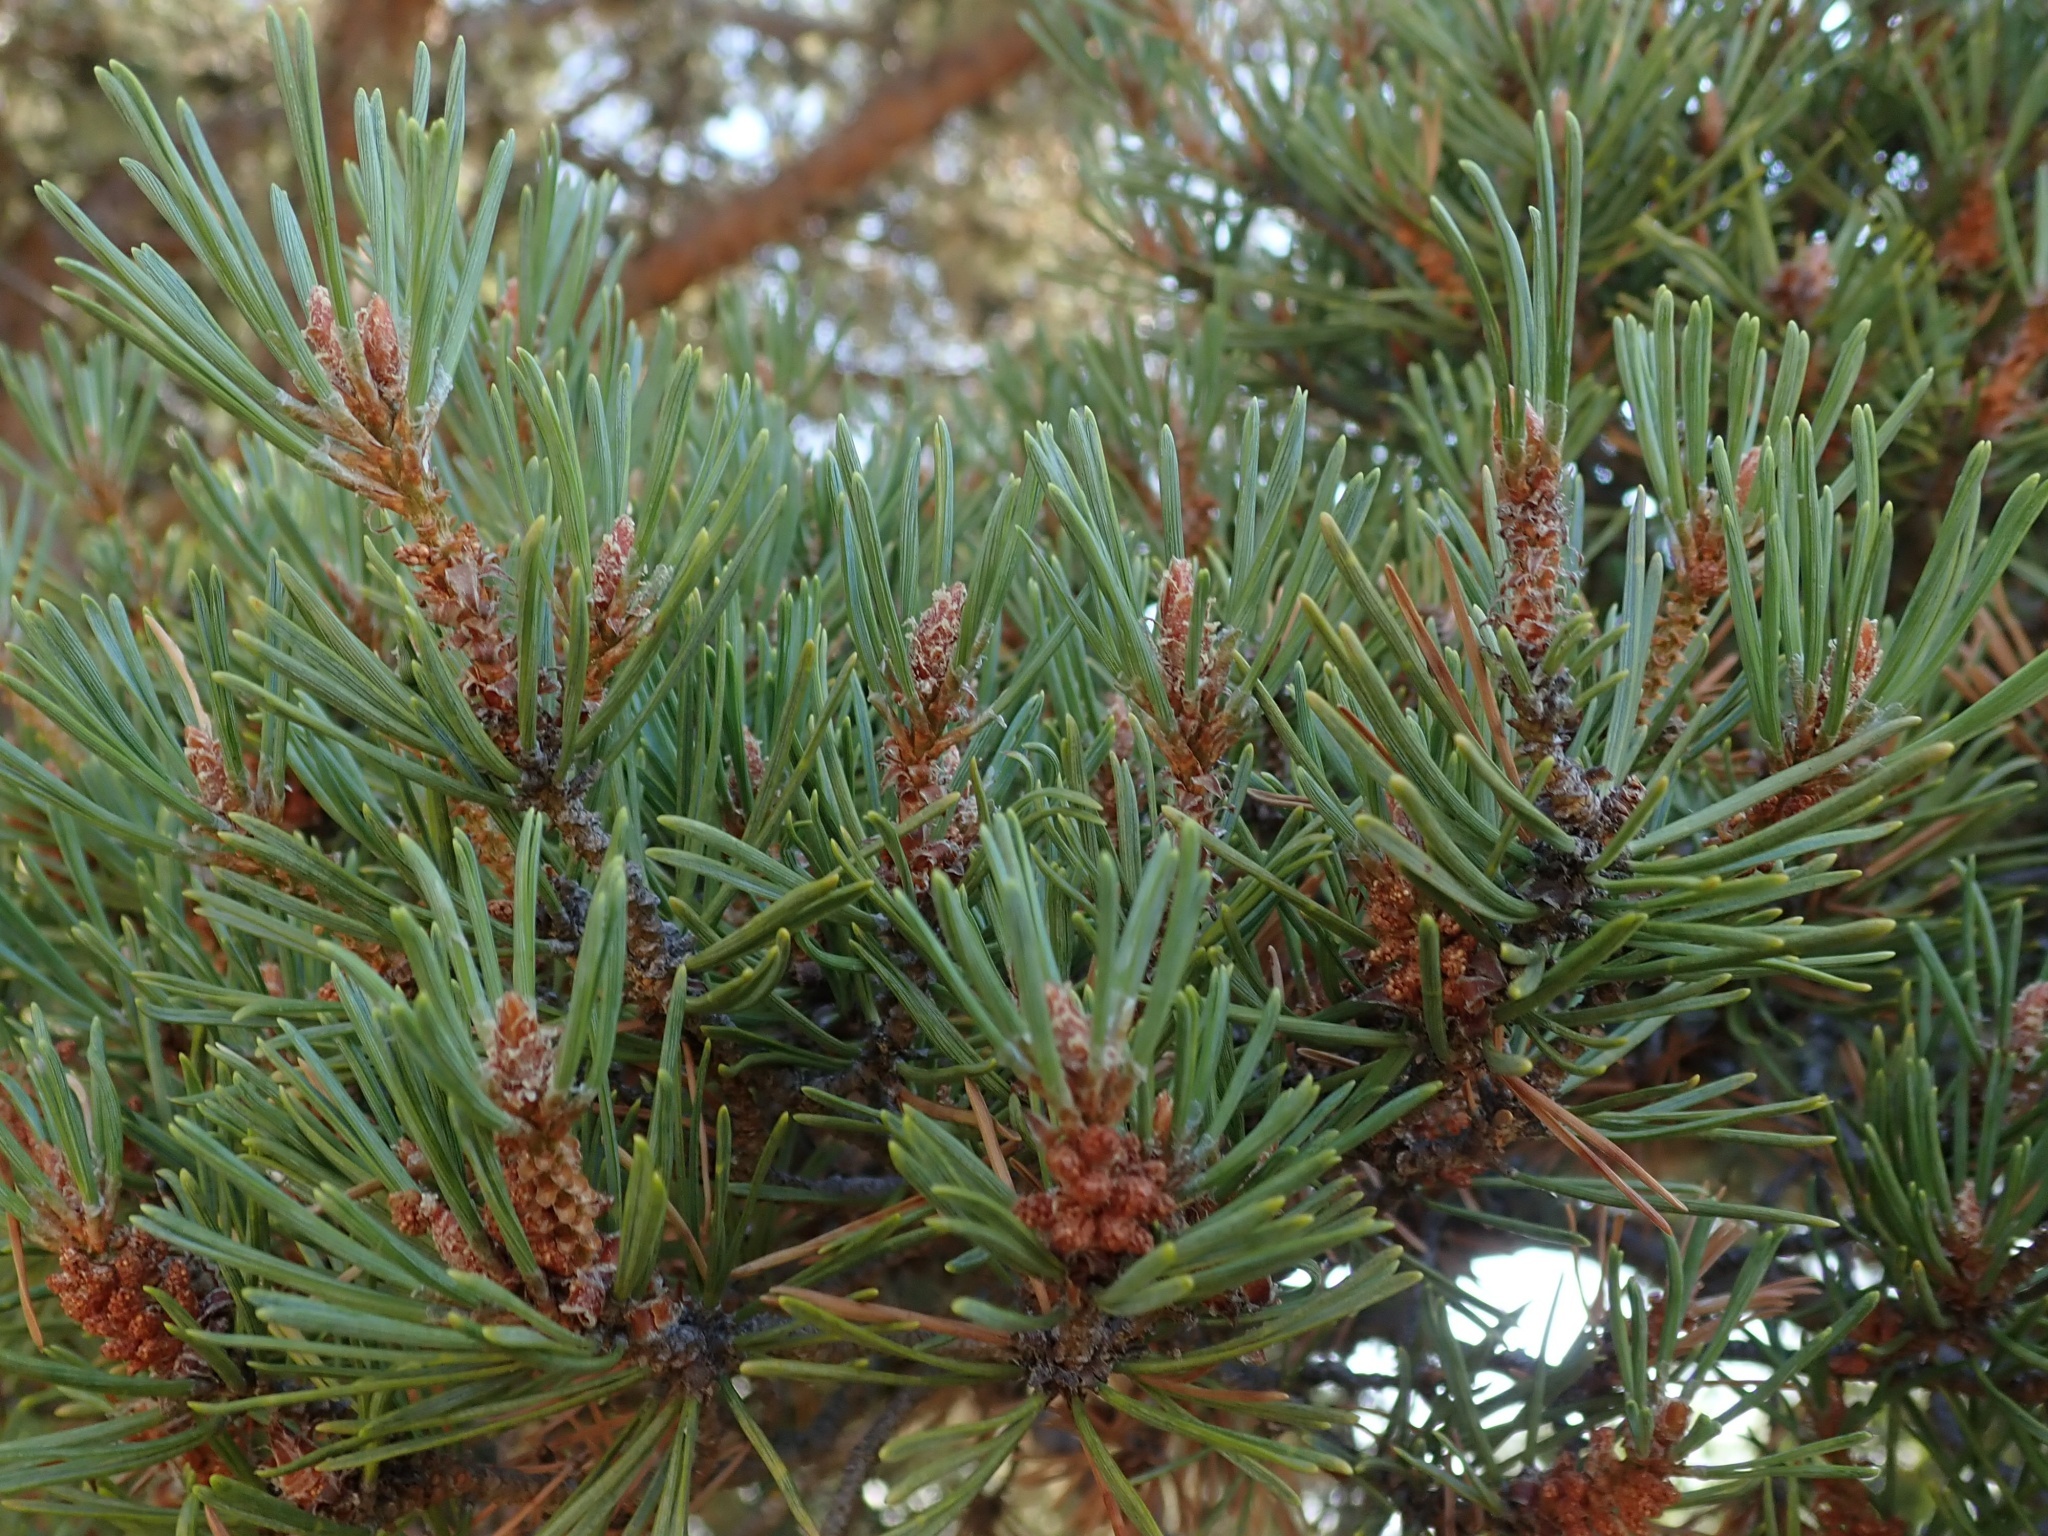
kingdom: Plantae
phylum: Tracheophyta
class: Pinopsida
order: Pinales
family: Pinaceae
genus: Pinus
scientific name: Pinus sylvestris
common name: Scots pine
